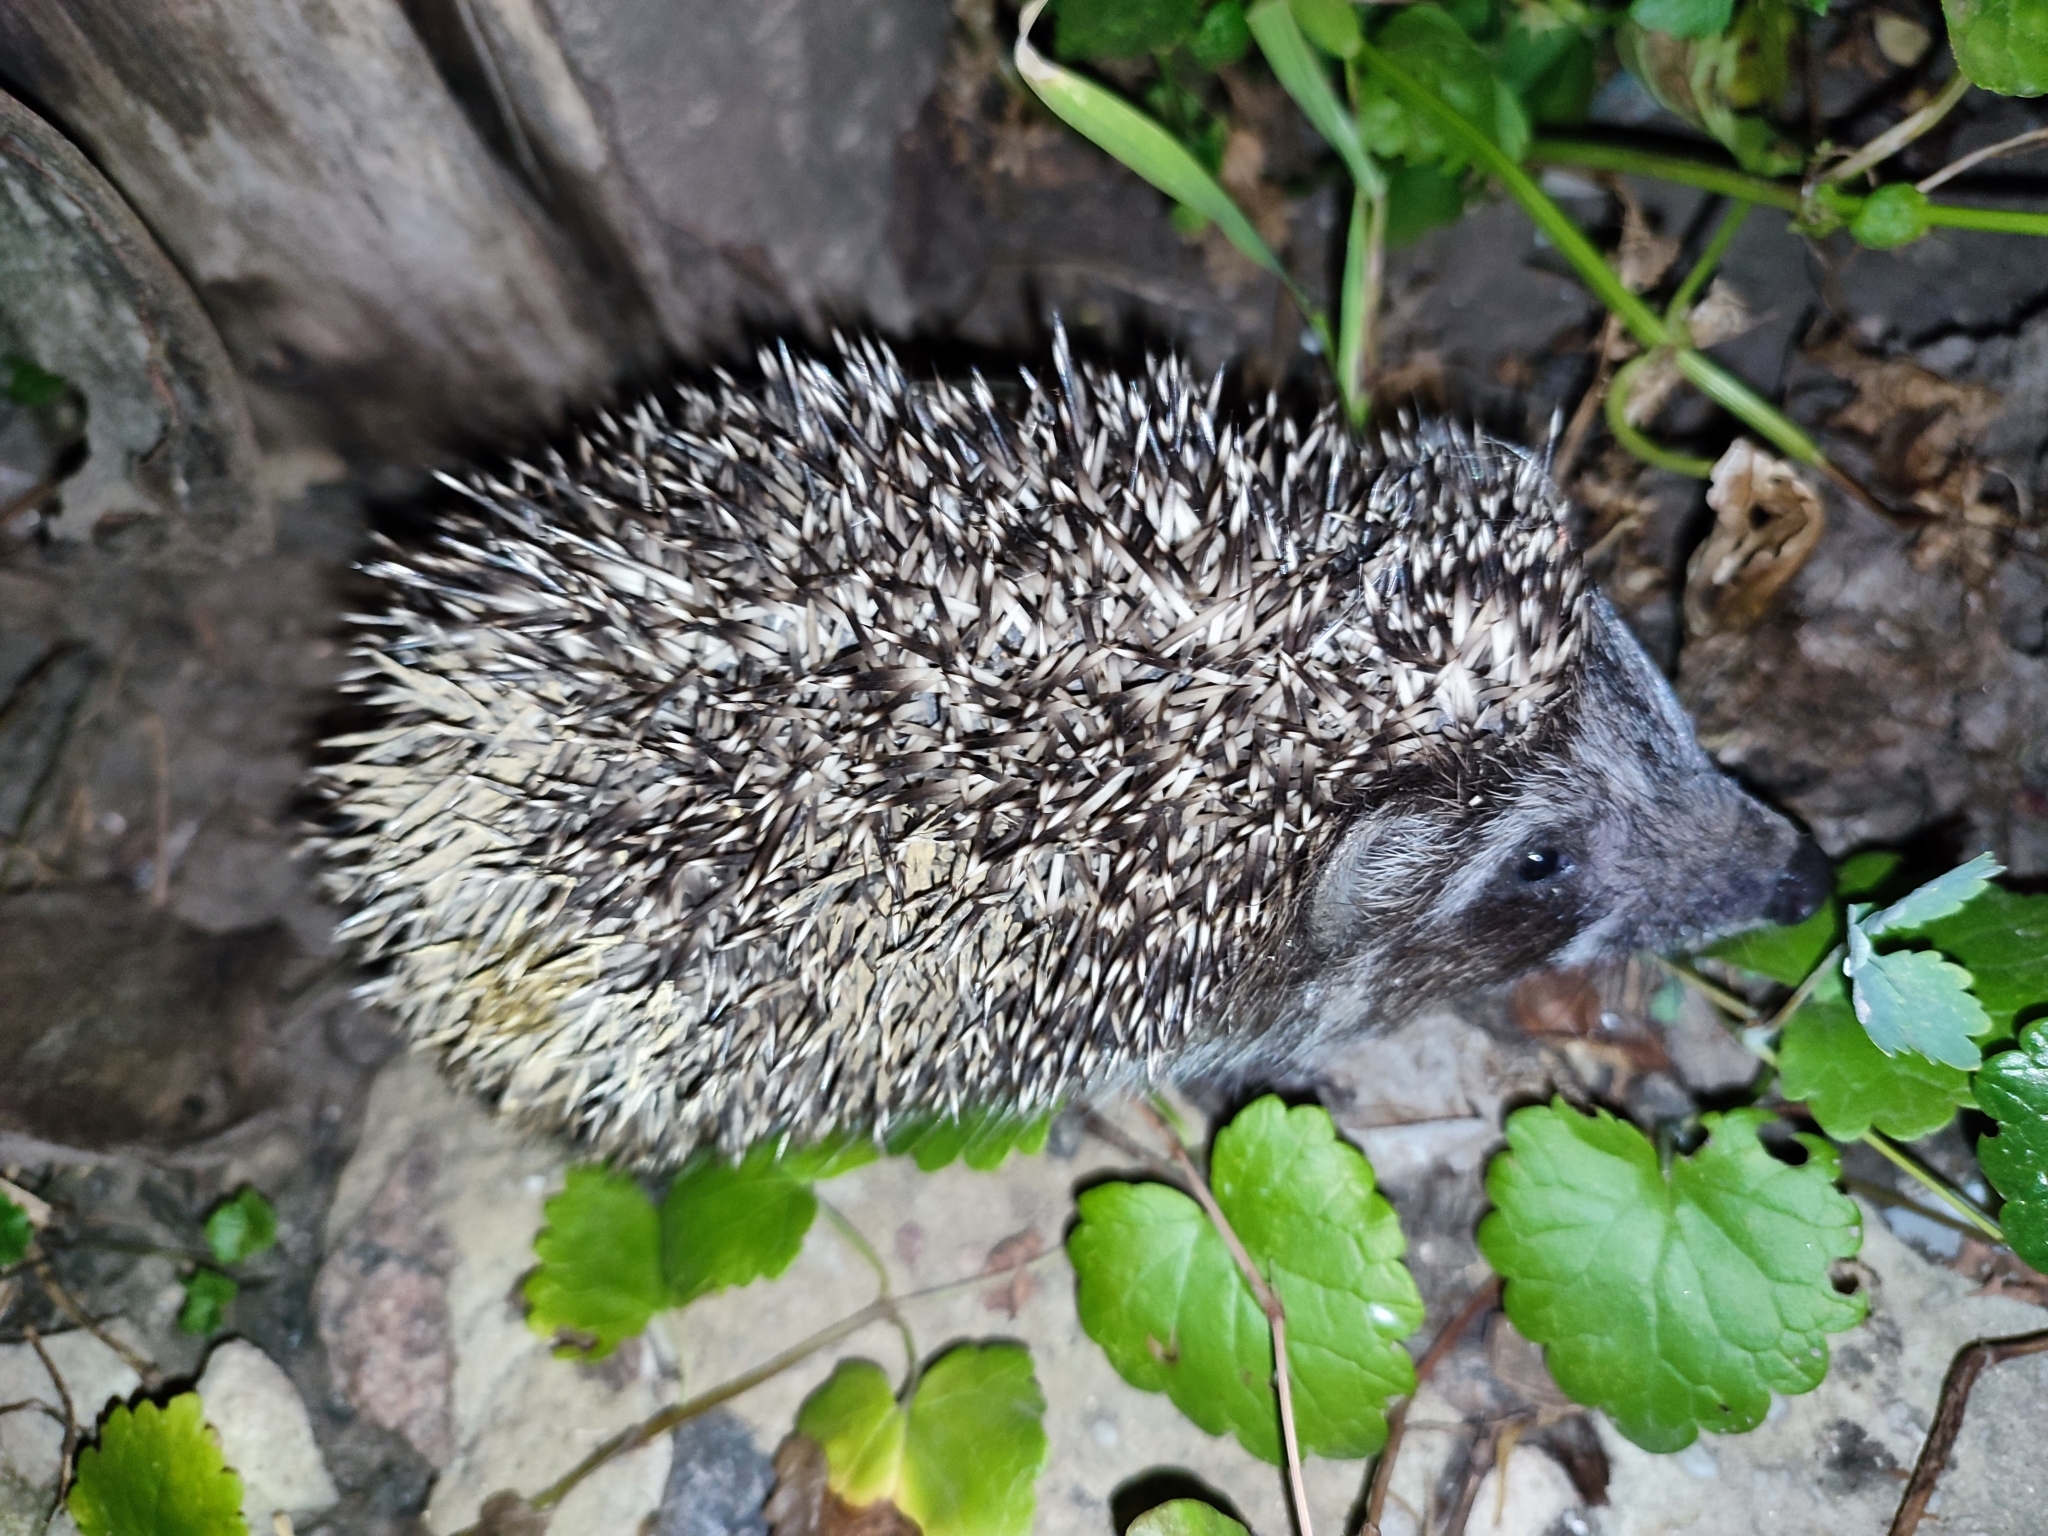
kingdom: Animalia
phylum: Chordata
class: Mammalia
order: Erinaceomorpha
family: Erinaceidae
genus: Erinaceus
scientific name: Erinaceus roumanicus
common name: Northern white-breasted hedgehog
